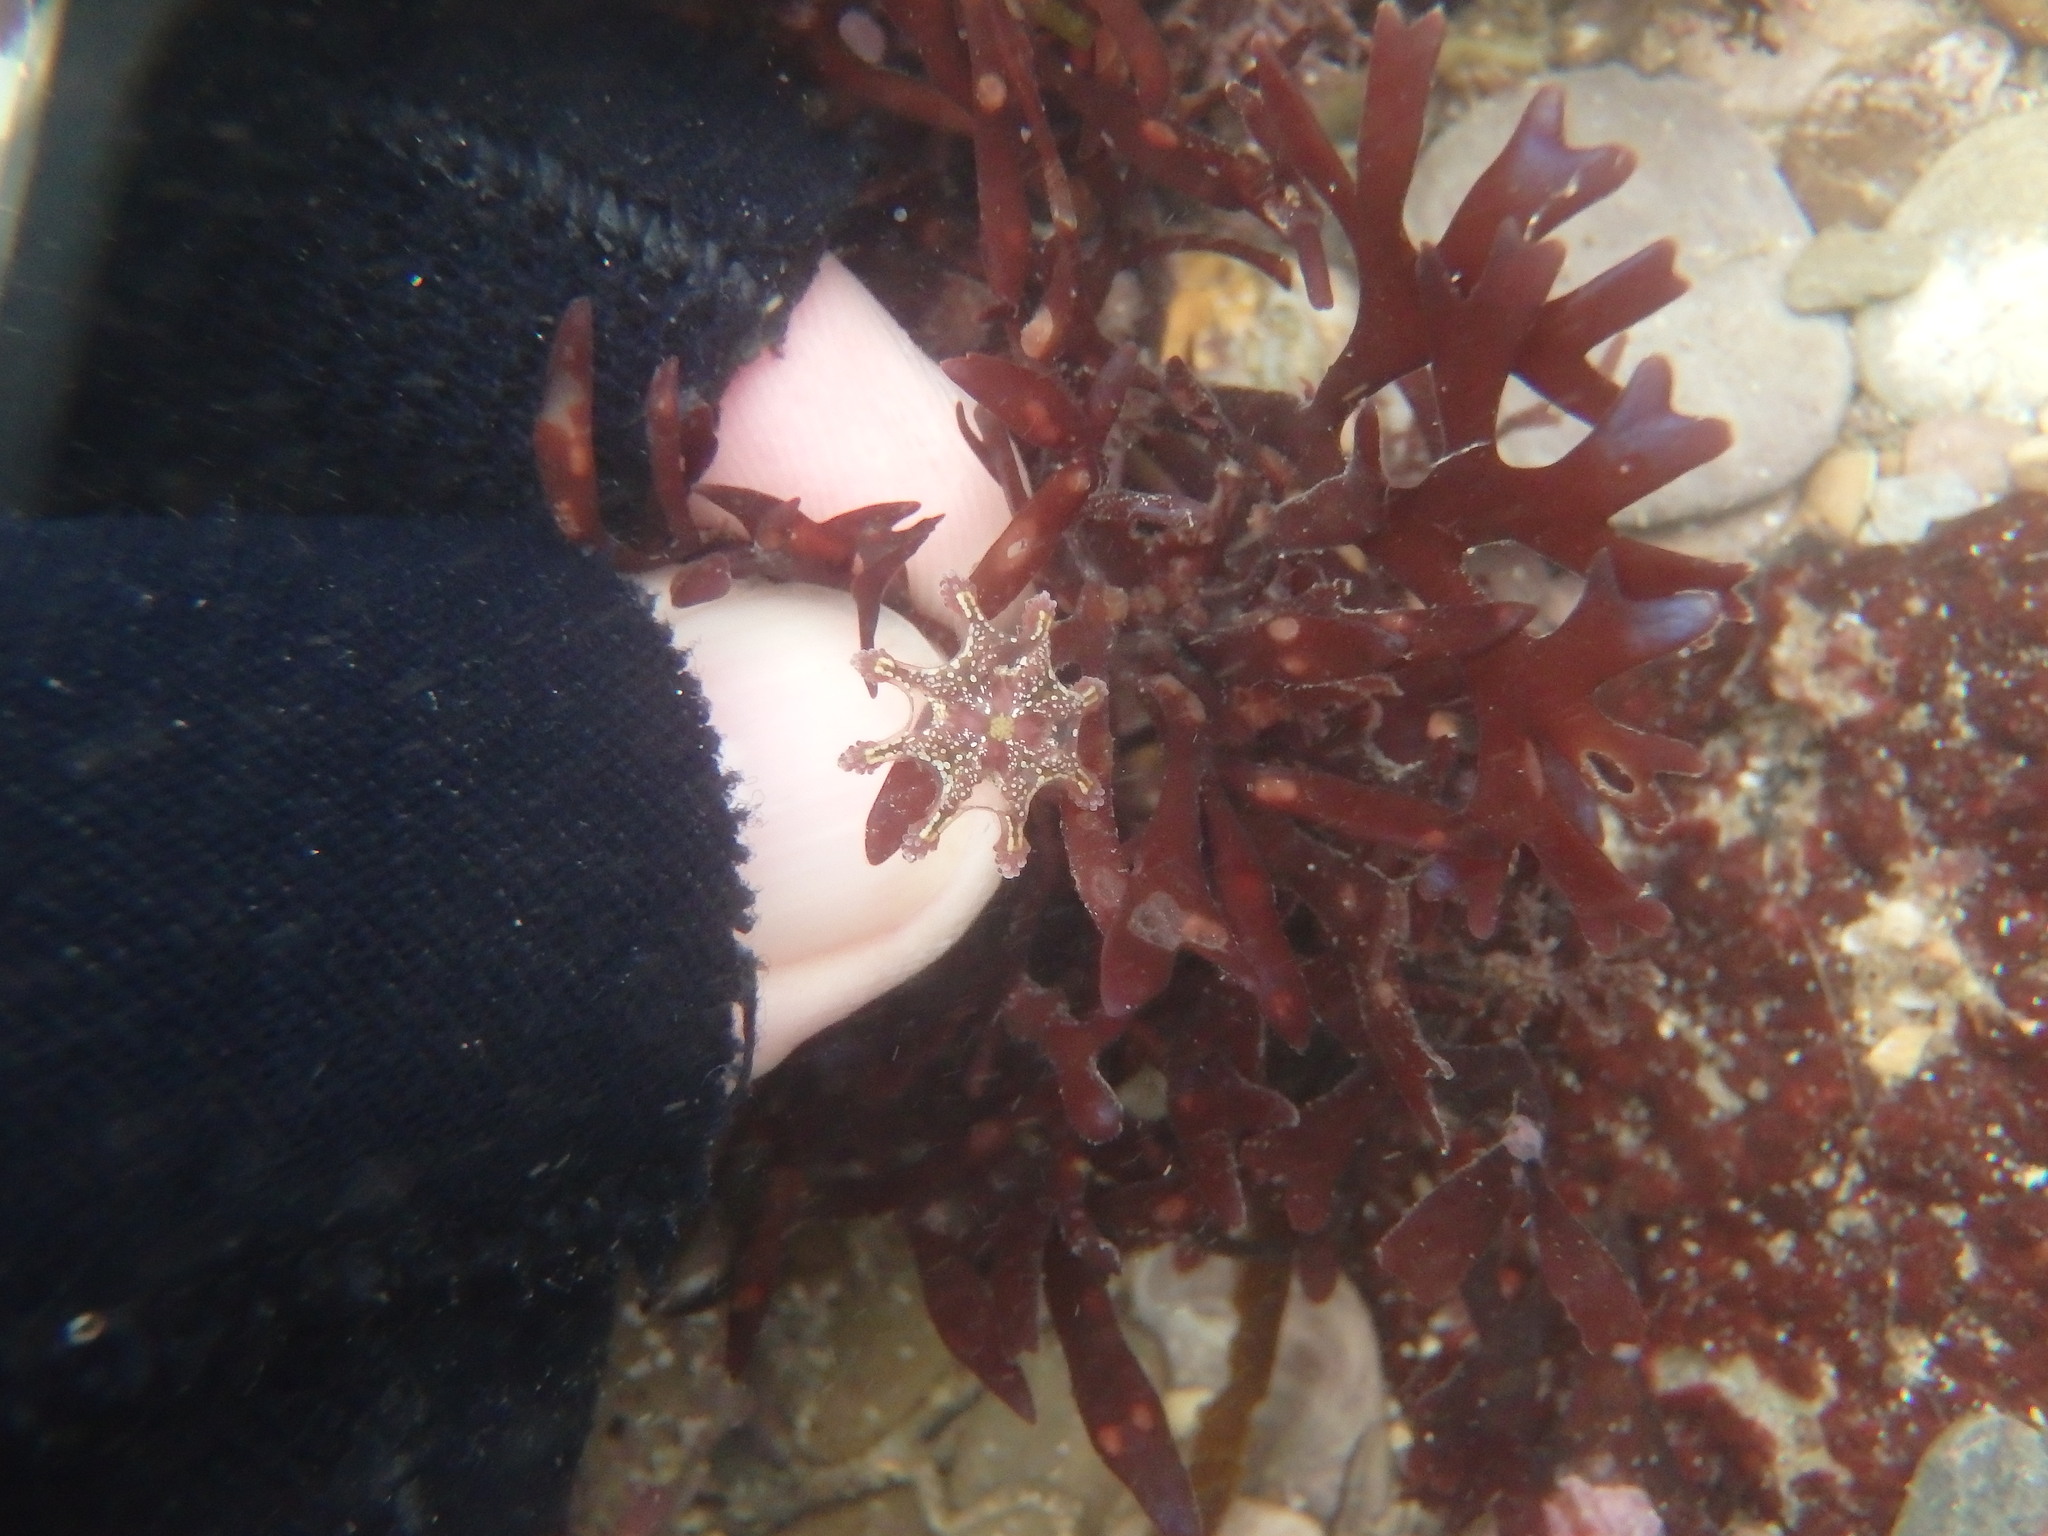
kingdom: Animalia
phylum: Cnidaria
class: Staurozoa
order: Stauromedusae
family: Kishinouyeidae
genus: Calvadosia
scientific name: Calvadosia cruxmelitensis
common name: St. john's jellyfish
